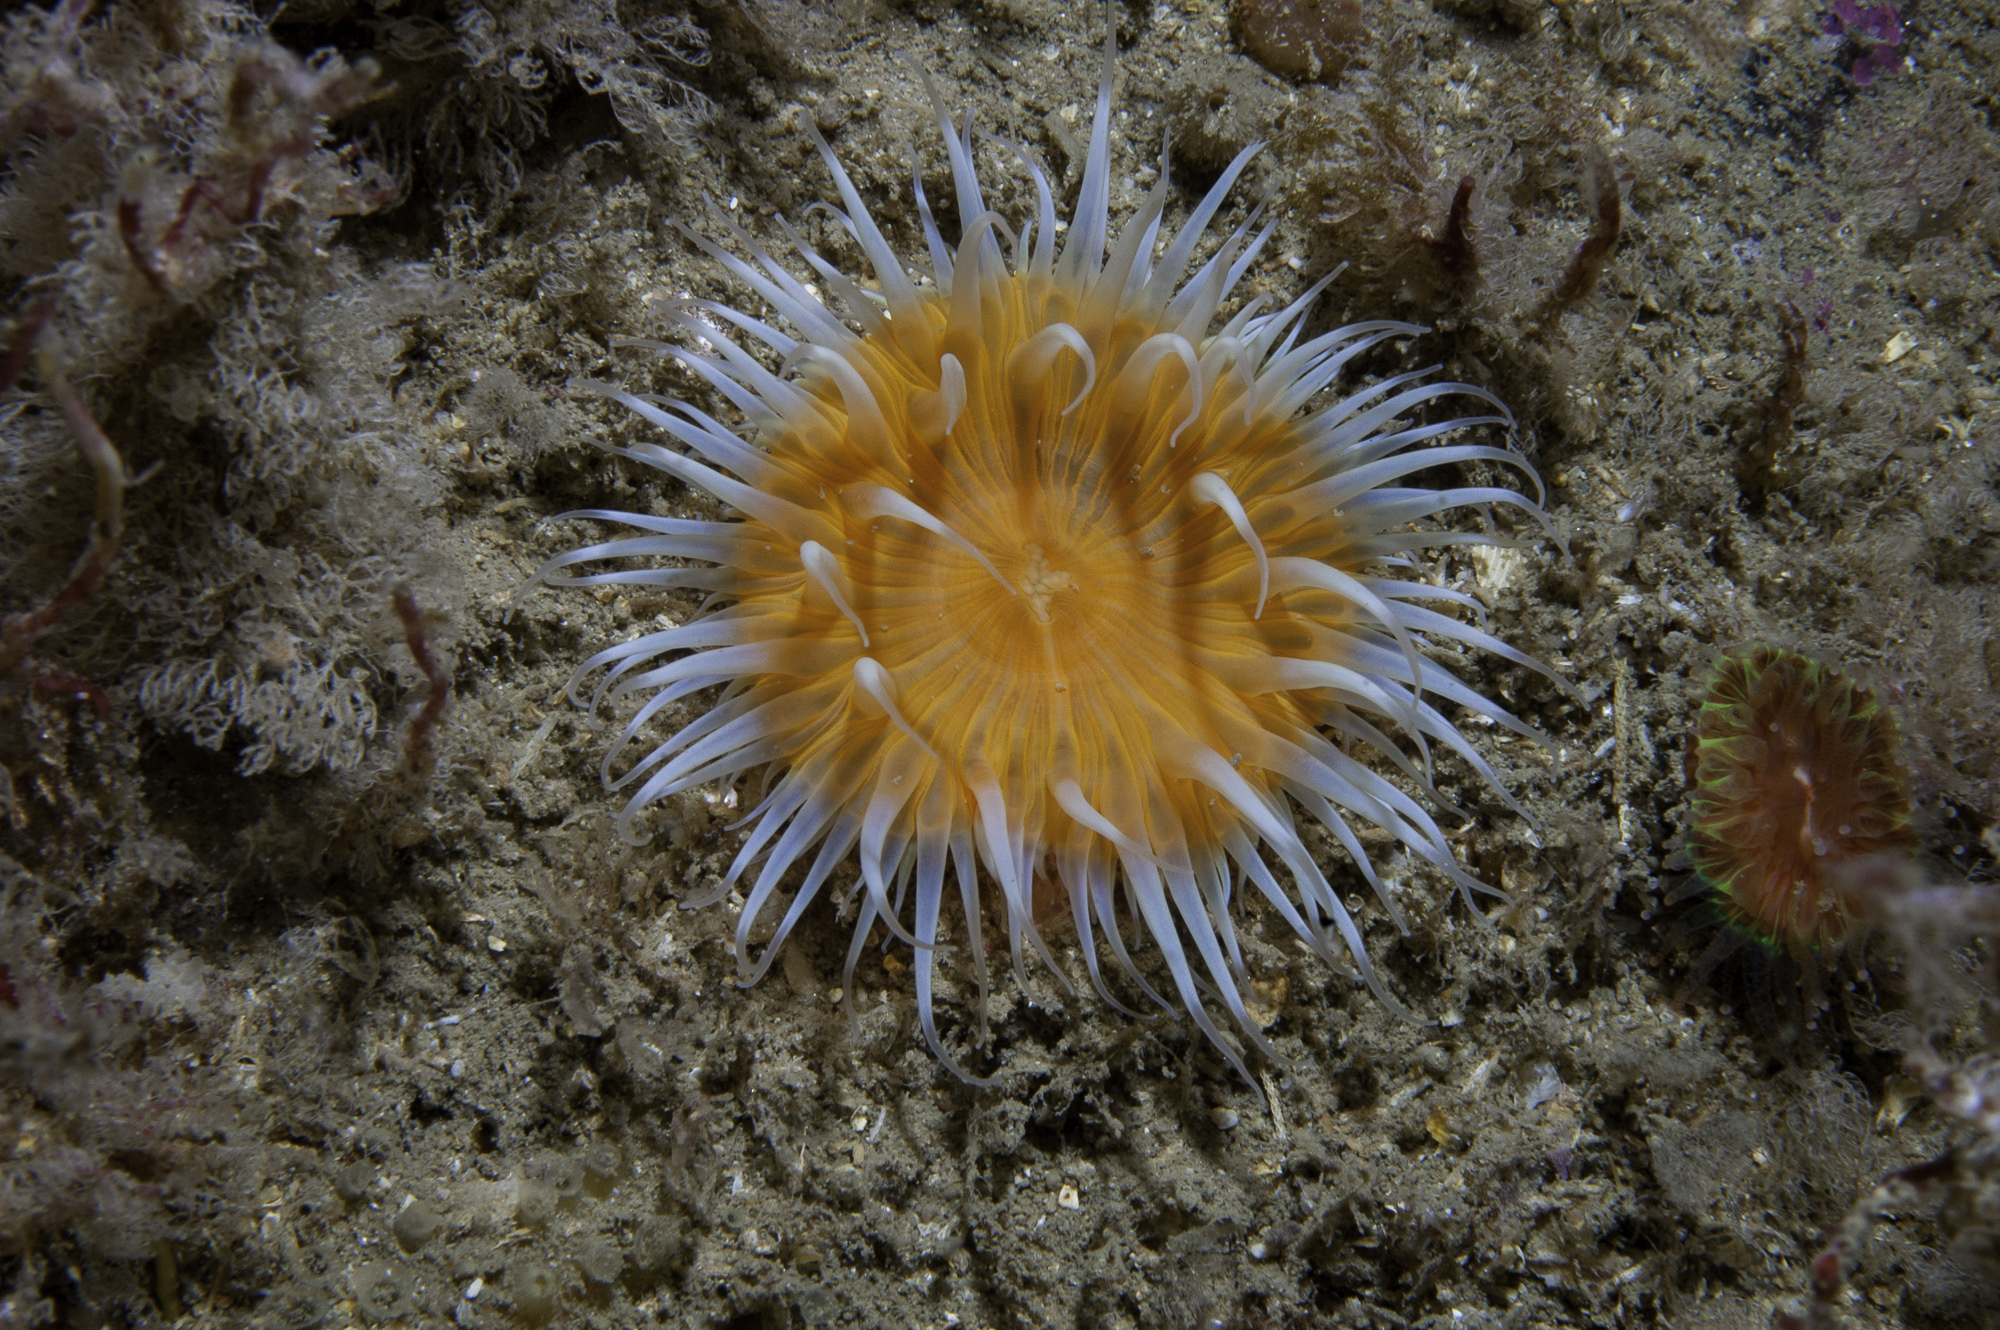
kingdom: Animalia
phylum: Cnidaria
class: Anthozoa
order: Actiniaria
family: Sagartiidae
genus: Cylista
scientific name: Cylista elegans
